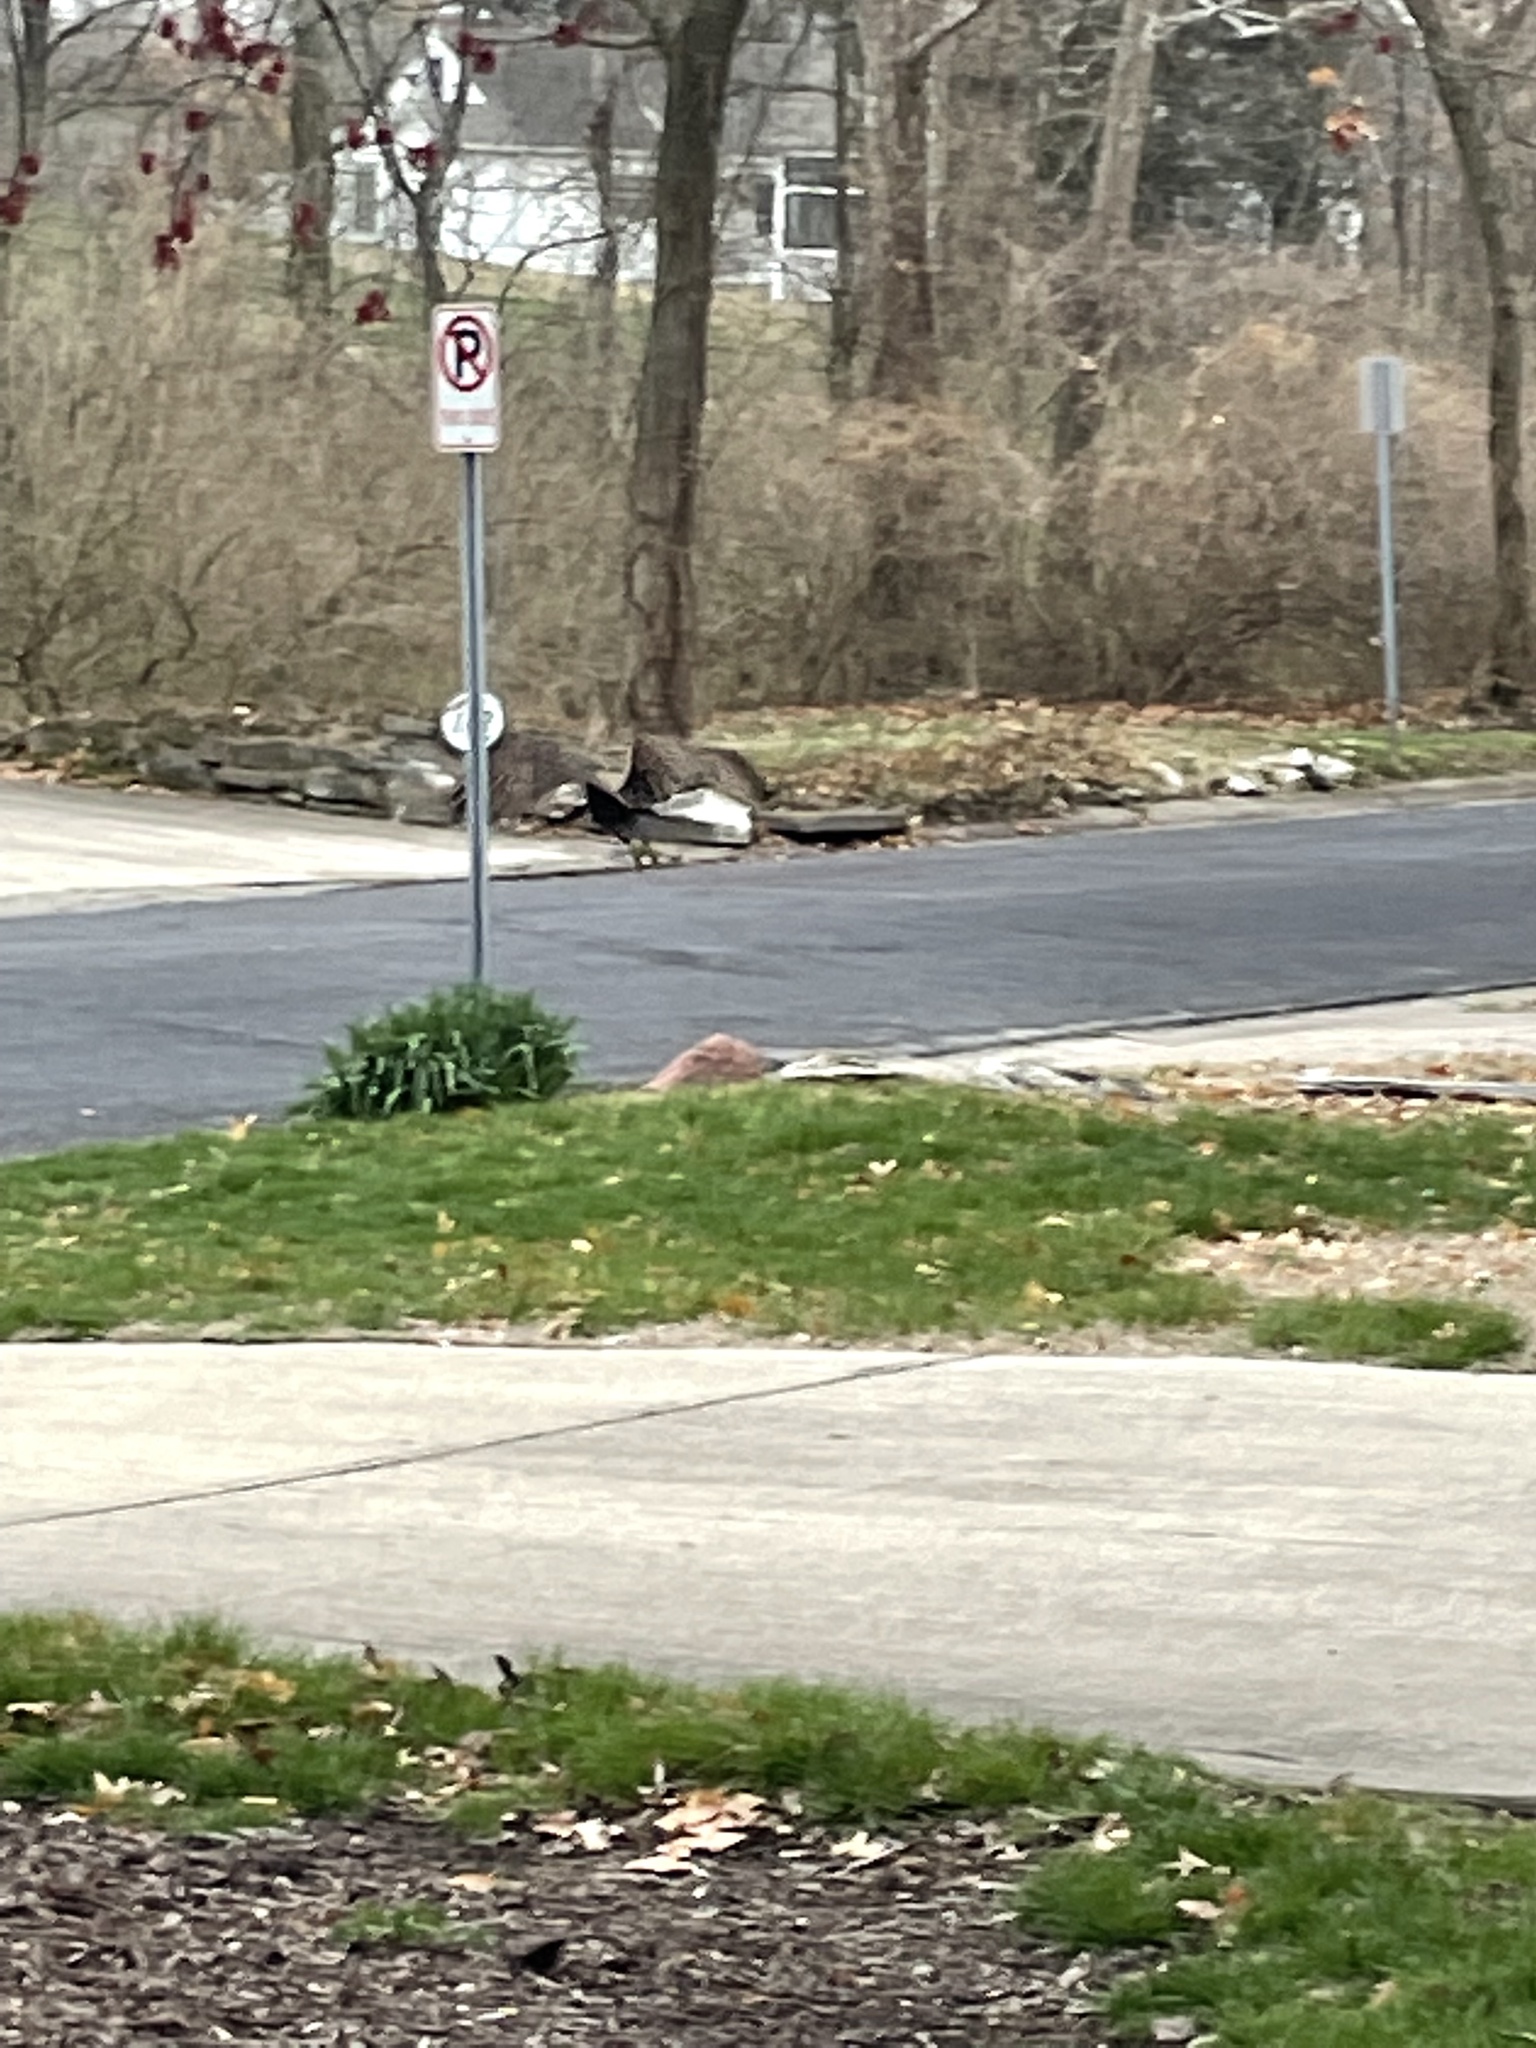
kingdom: Animalia
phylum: Chordata
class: Aves
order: Accipitriformes
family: Cathartidae
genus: Cathartes
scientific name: Cathartes aura
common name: Turkey vulture
